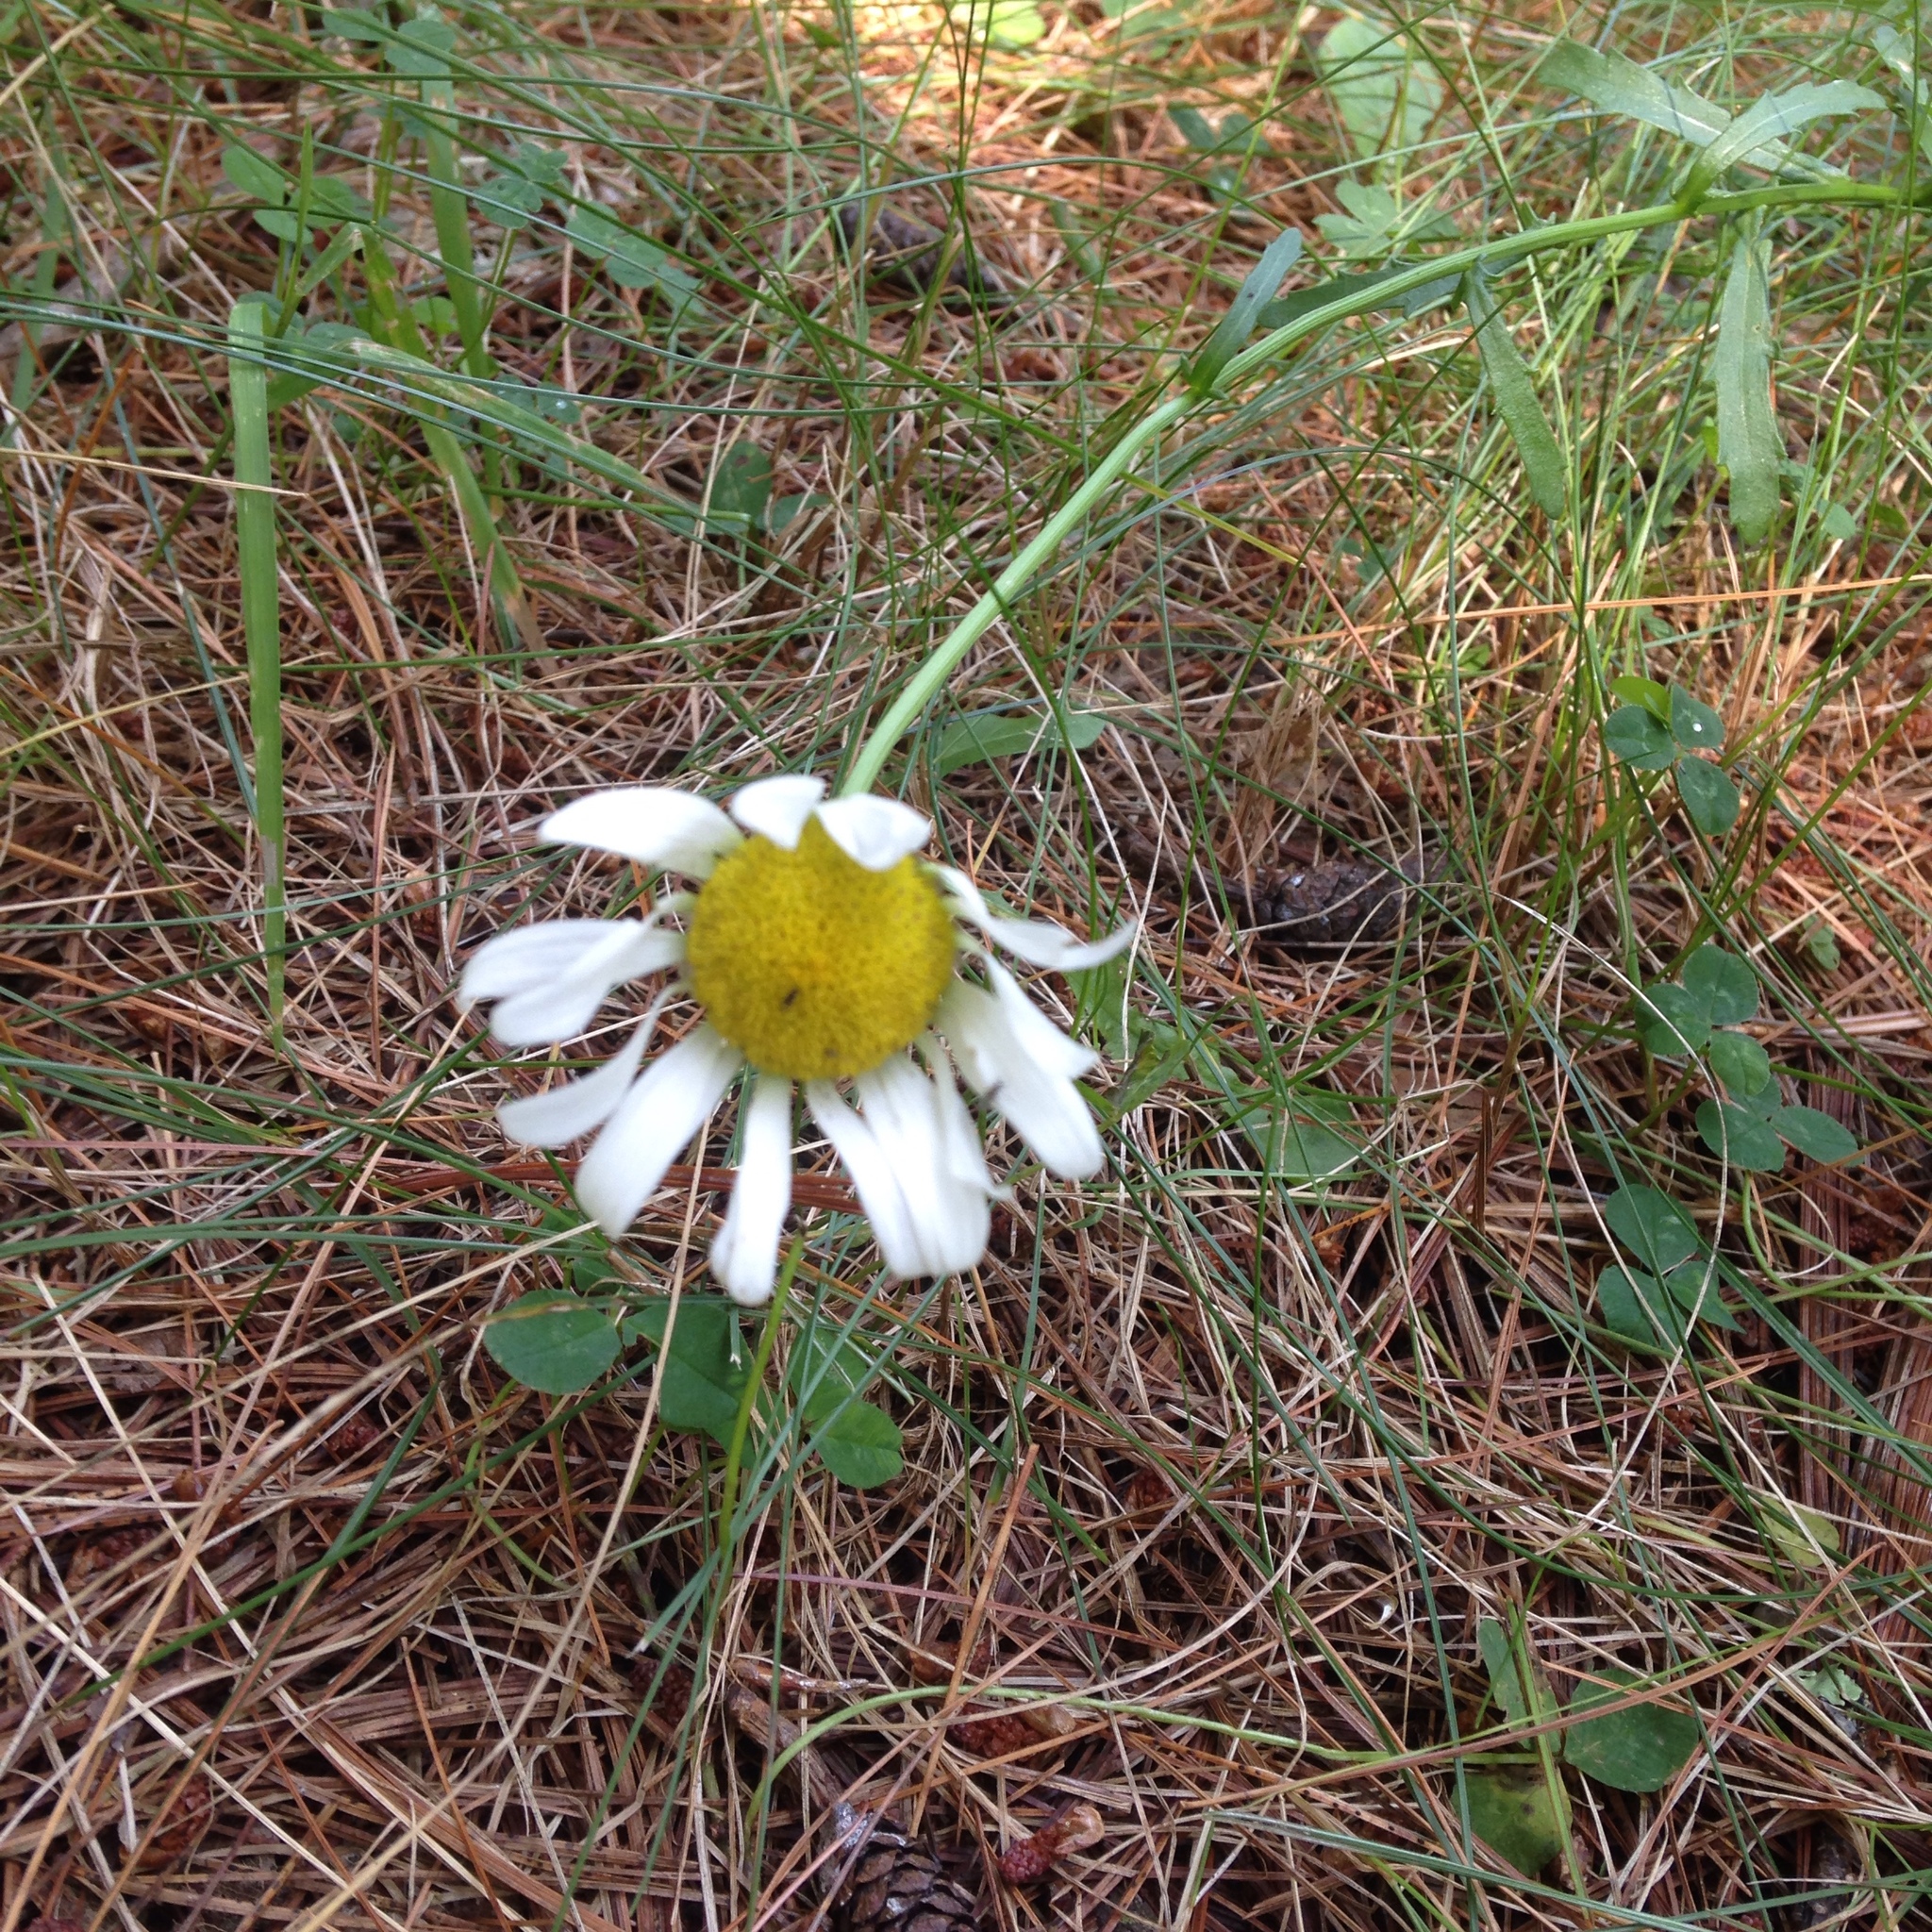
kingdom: Plantae
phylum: Tracheophyta
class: Magnoliopsida
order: Asterales
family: Asteraceae
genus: Leucanthemum
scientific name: Leucanthemum vulgare
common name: Oxeye daisy
